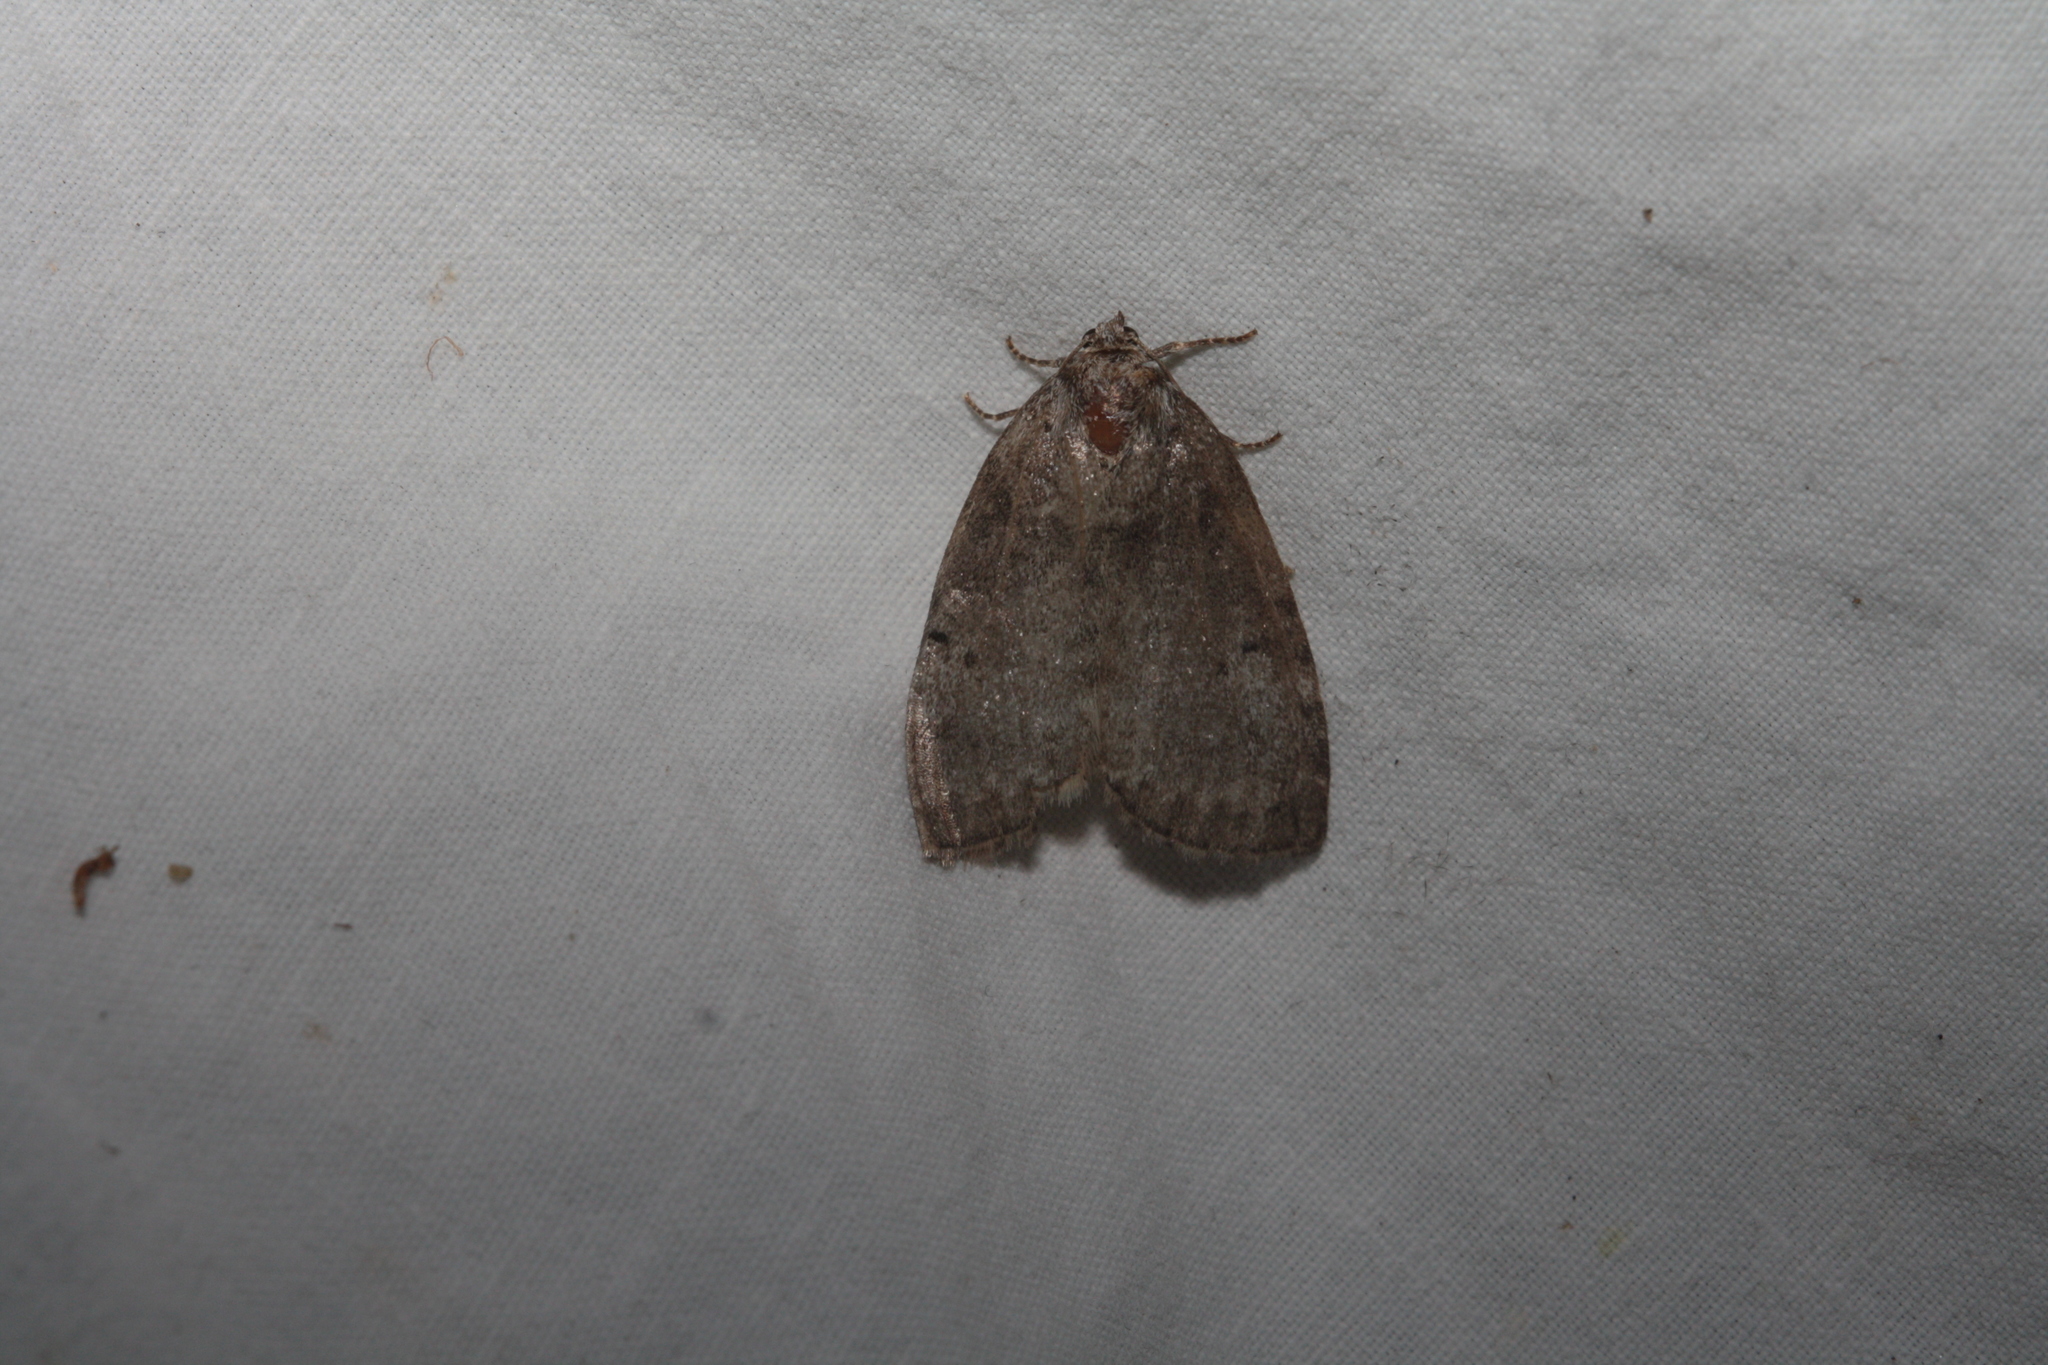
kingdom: Animalia
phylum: Arthropoda
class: Insecta
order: Lepidoptera
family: Drepanidae
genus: Ochropacha
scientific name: Ochropacha duplaris
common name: Common lutestring
